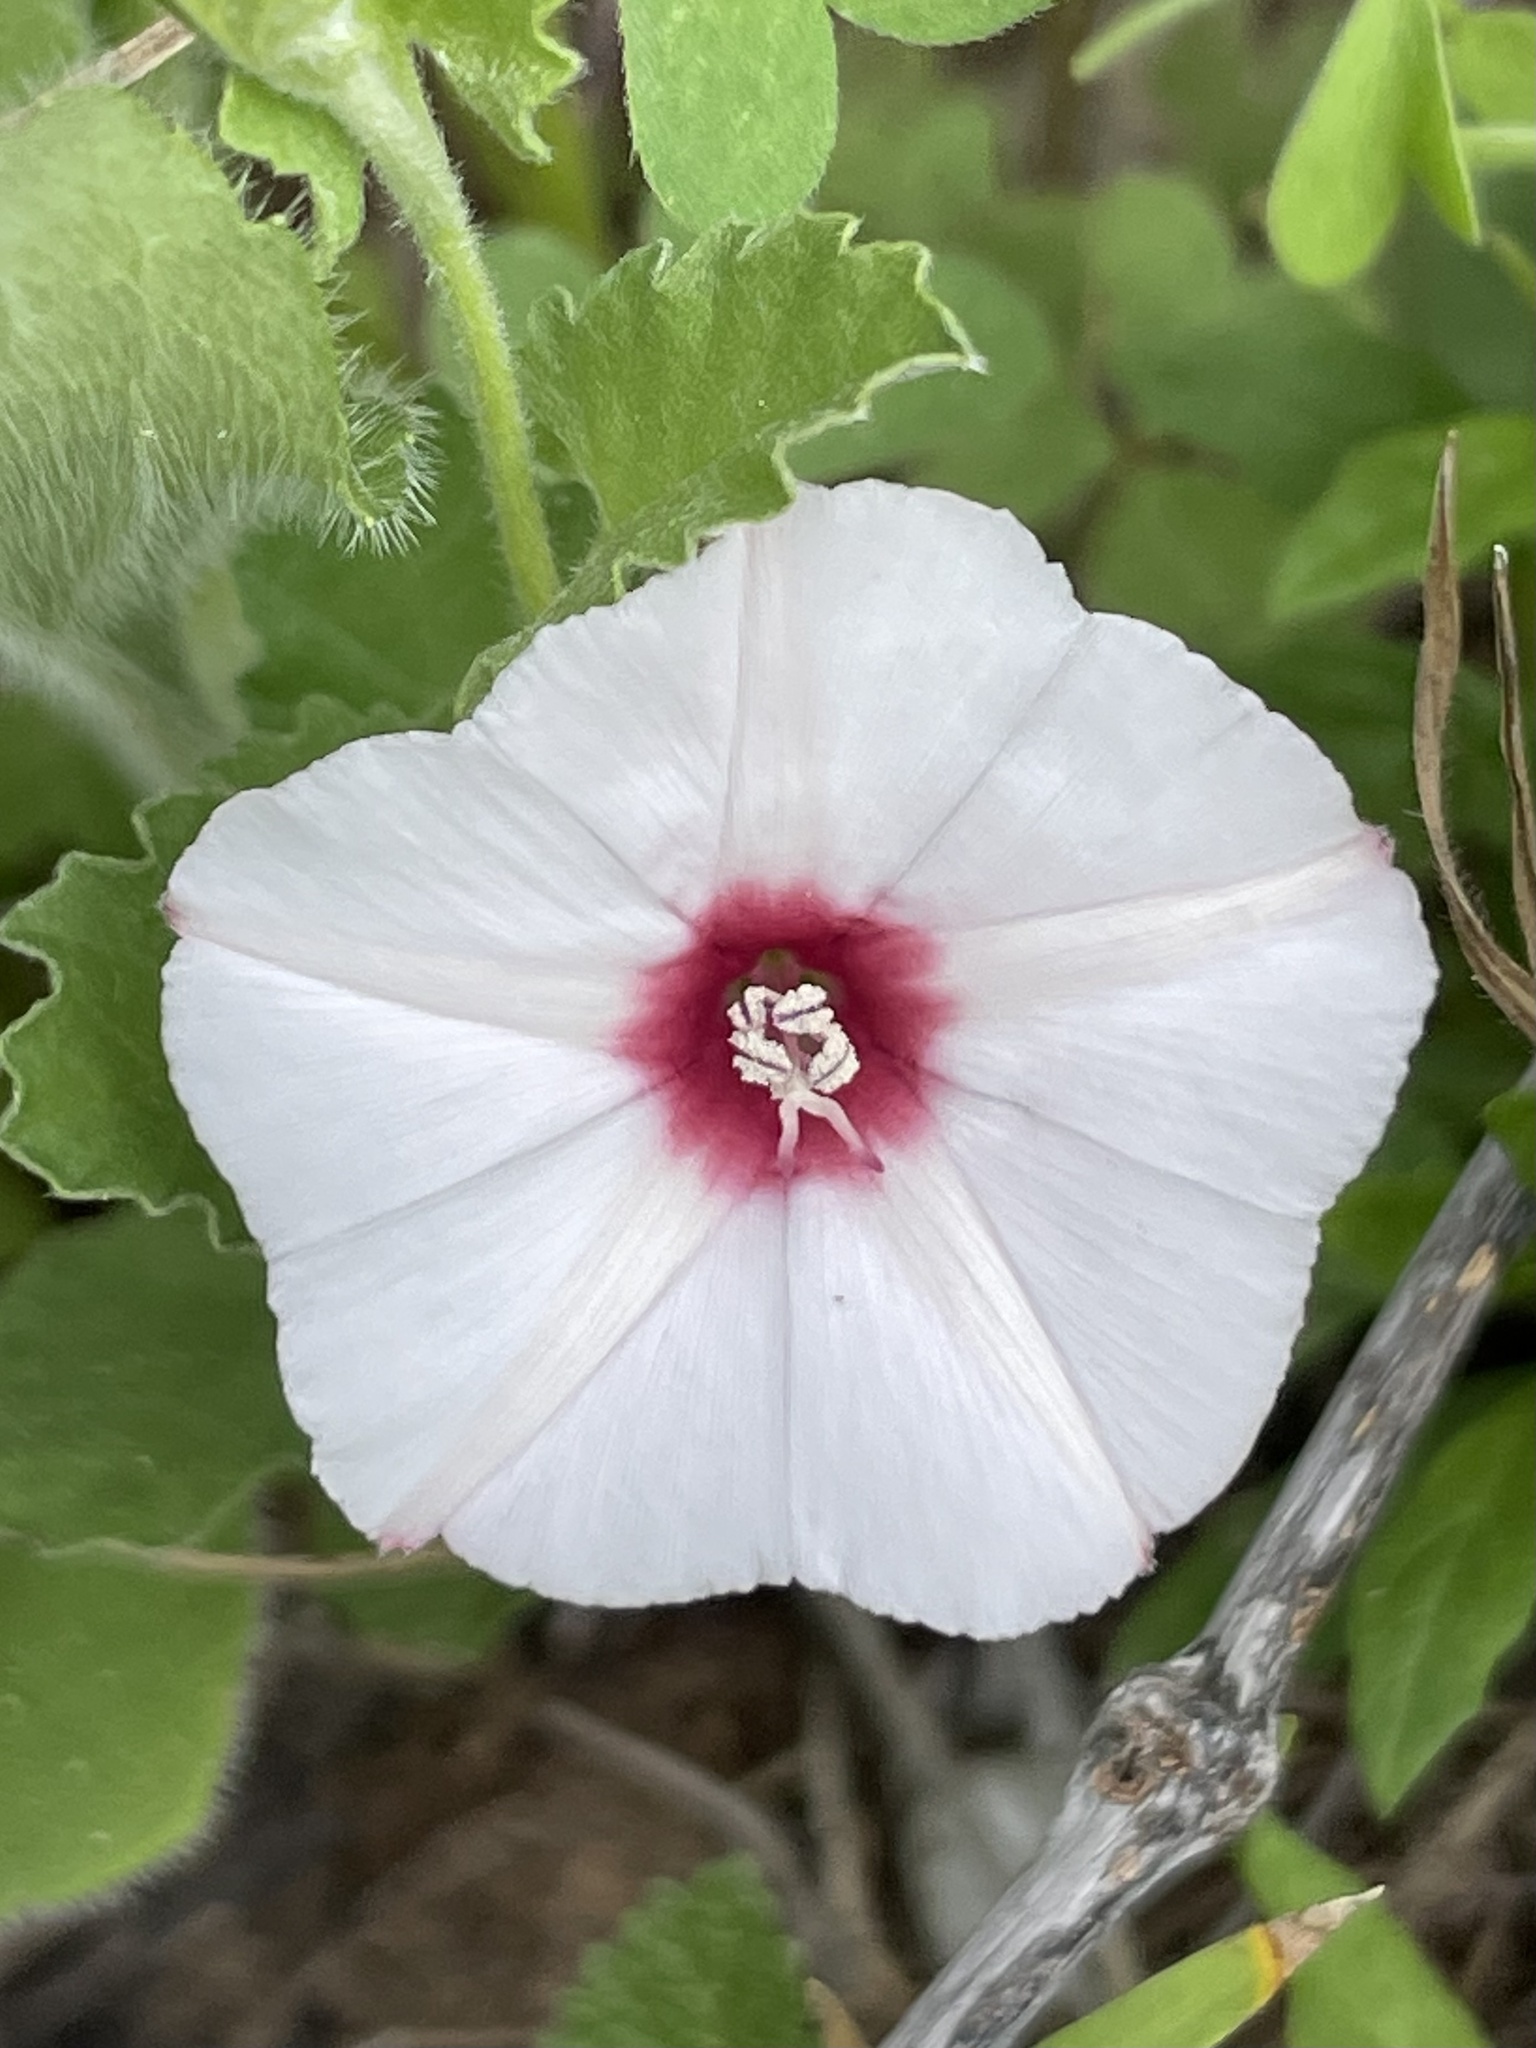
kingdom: Plantae
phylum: Tracheophyta
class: Magnoliopsida
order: Solanales
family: Convolvulaceae
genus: Convolvulus
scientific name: Convolvulus equitans
